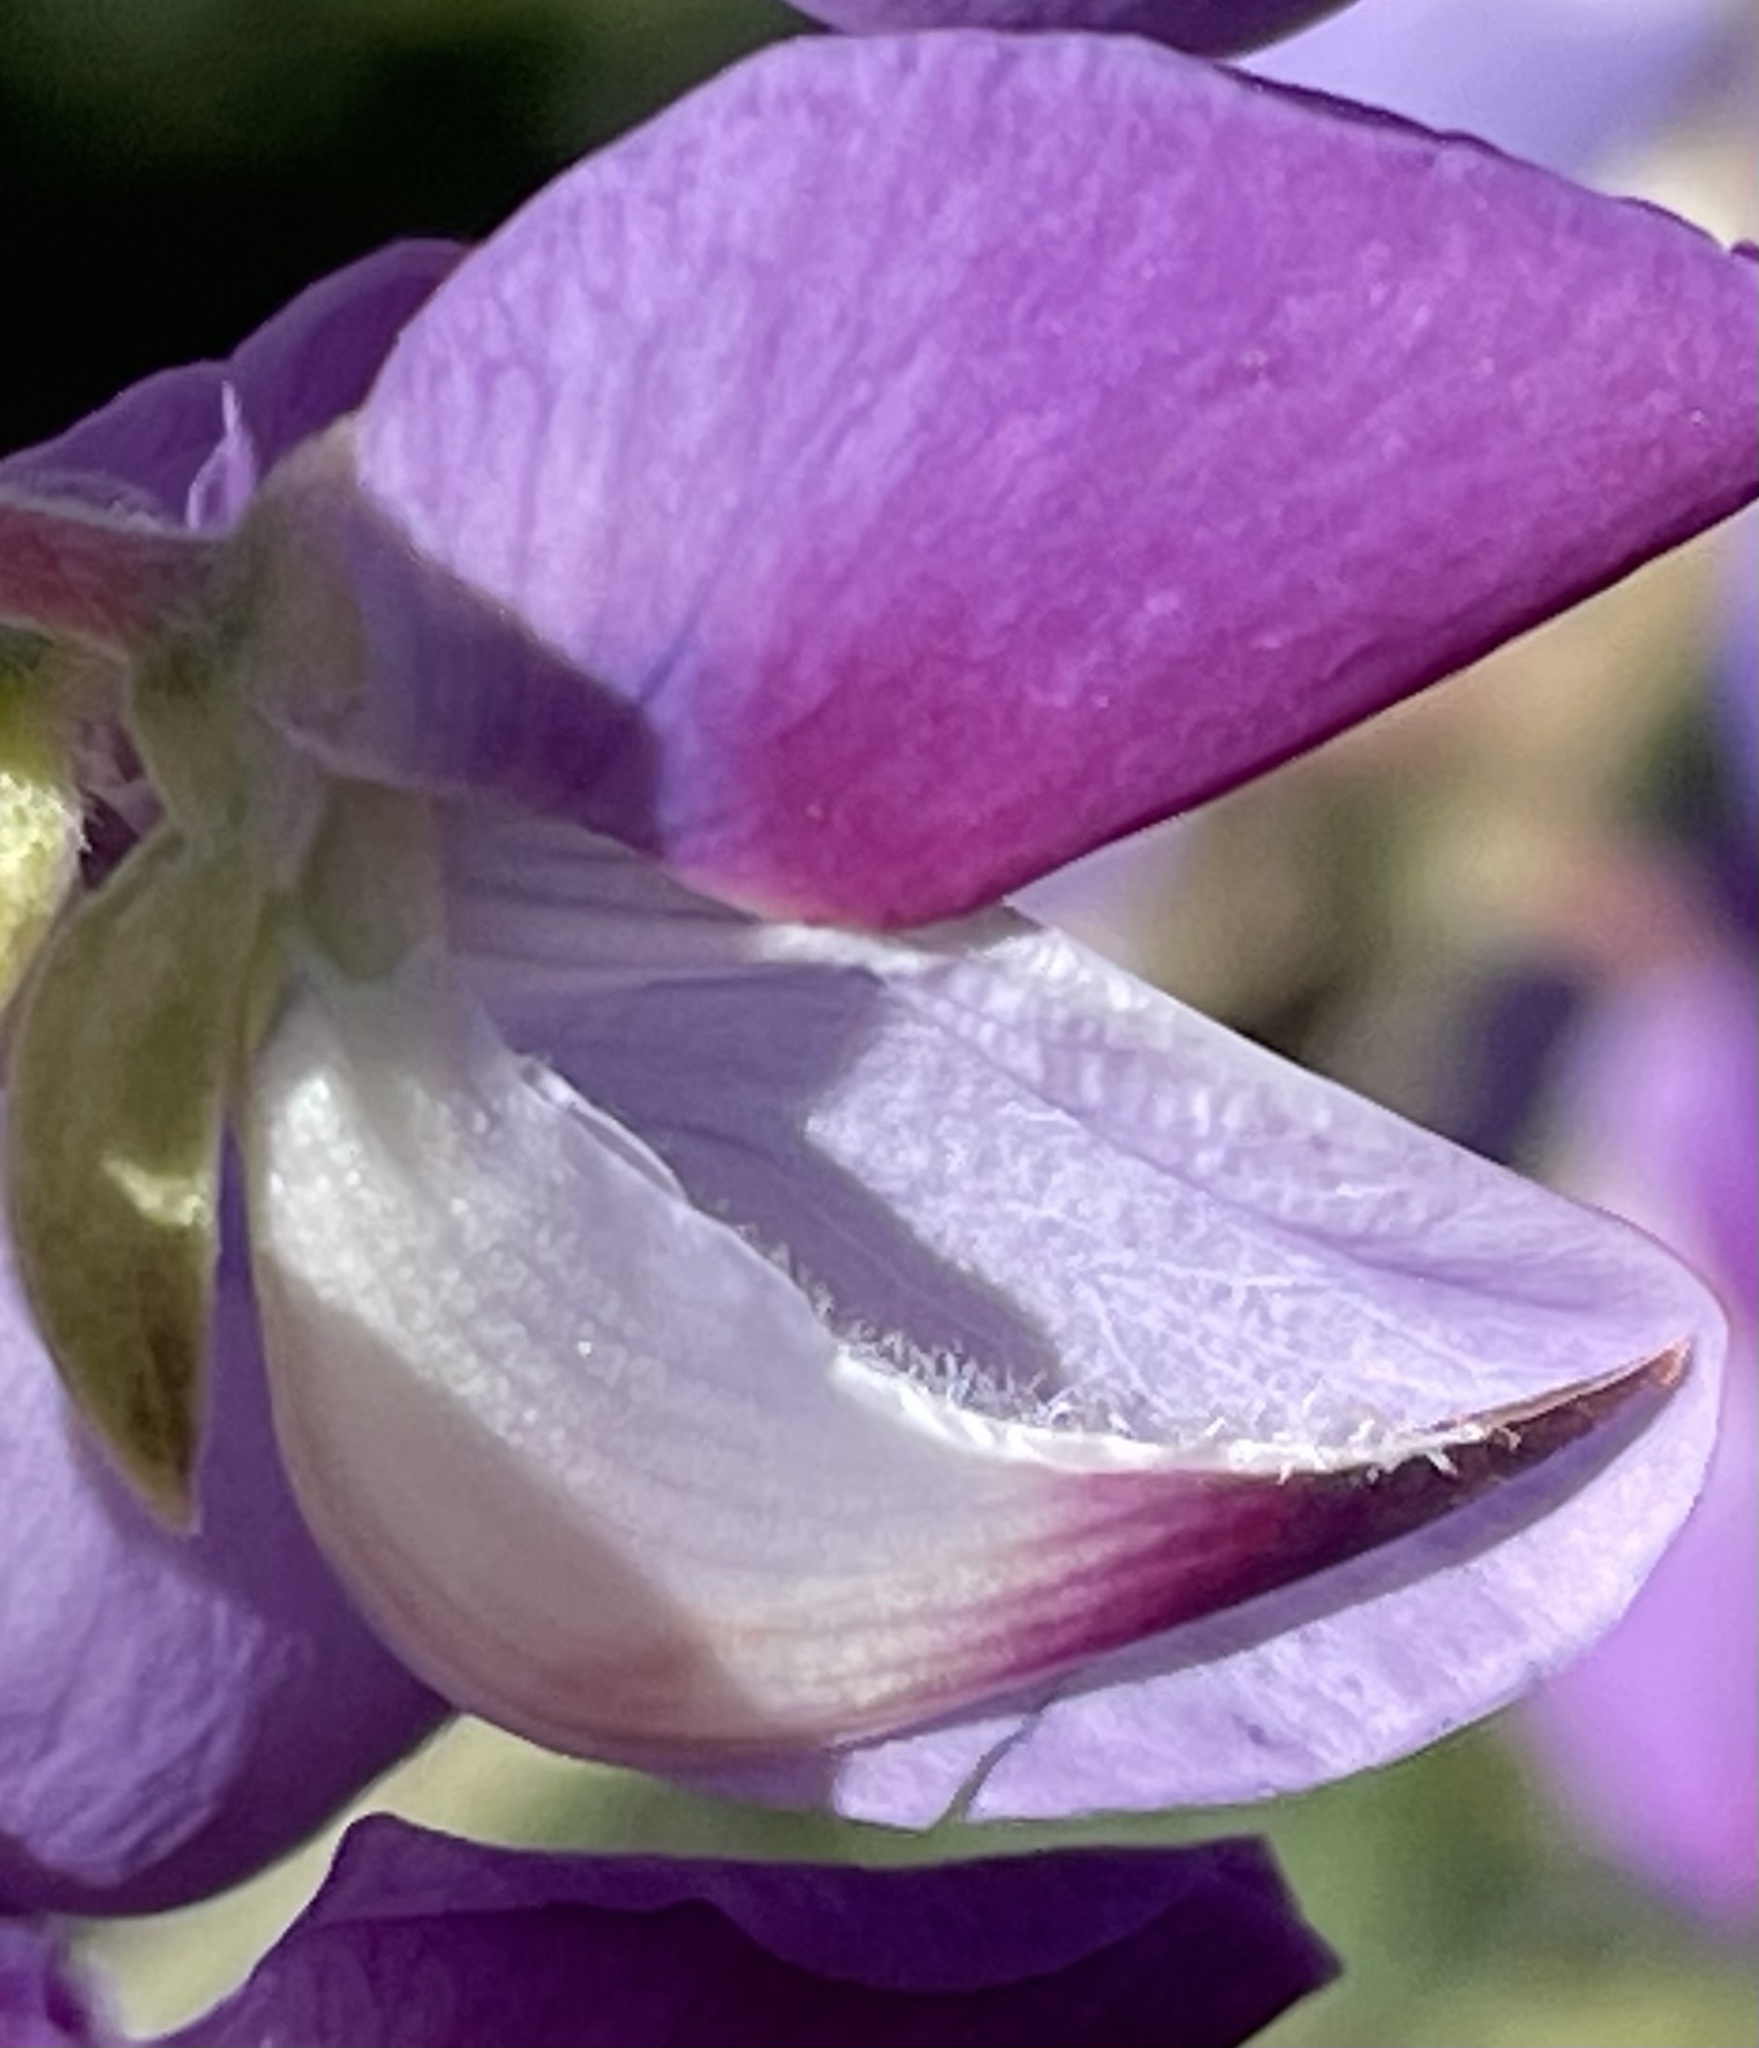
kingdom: Plantae
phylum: Tracheophyta
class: Magnoliopsida
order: Fabales
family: Fabaceae
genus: Lupinus
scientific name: Lupinus arboreus
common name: Yellow bush lupine
